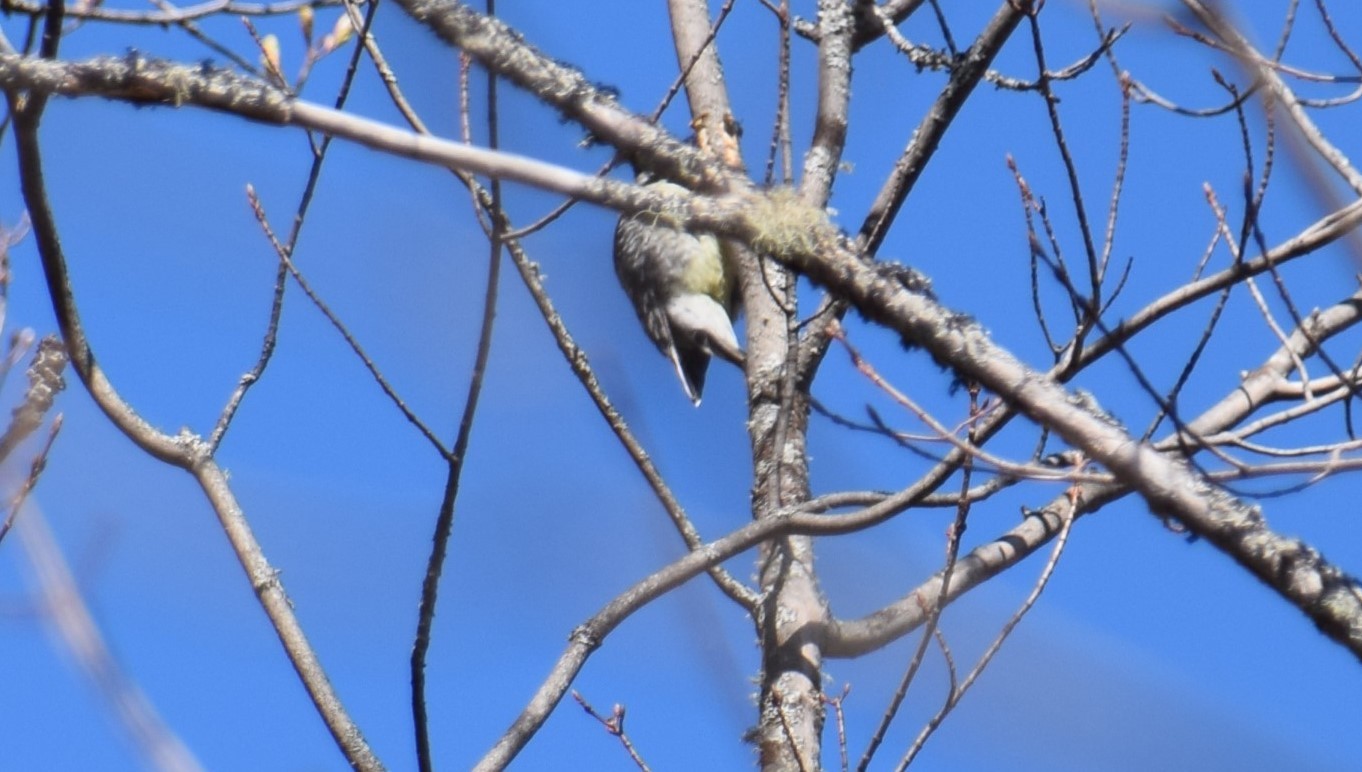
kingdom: Animalia
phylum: Chordata
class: Aves
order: Piciformes
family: Picidae
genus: Sphyrapicus
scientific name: Sphyrapicus varius
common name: Yellow-bellied sapsucker
